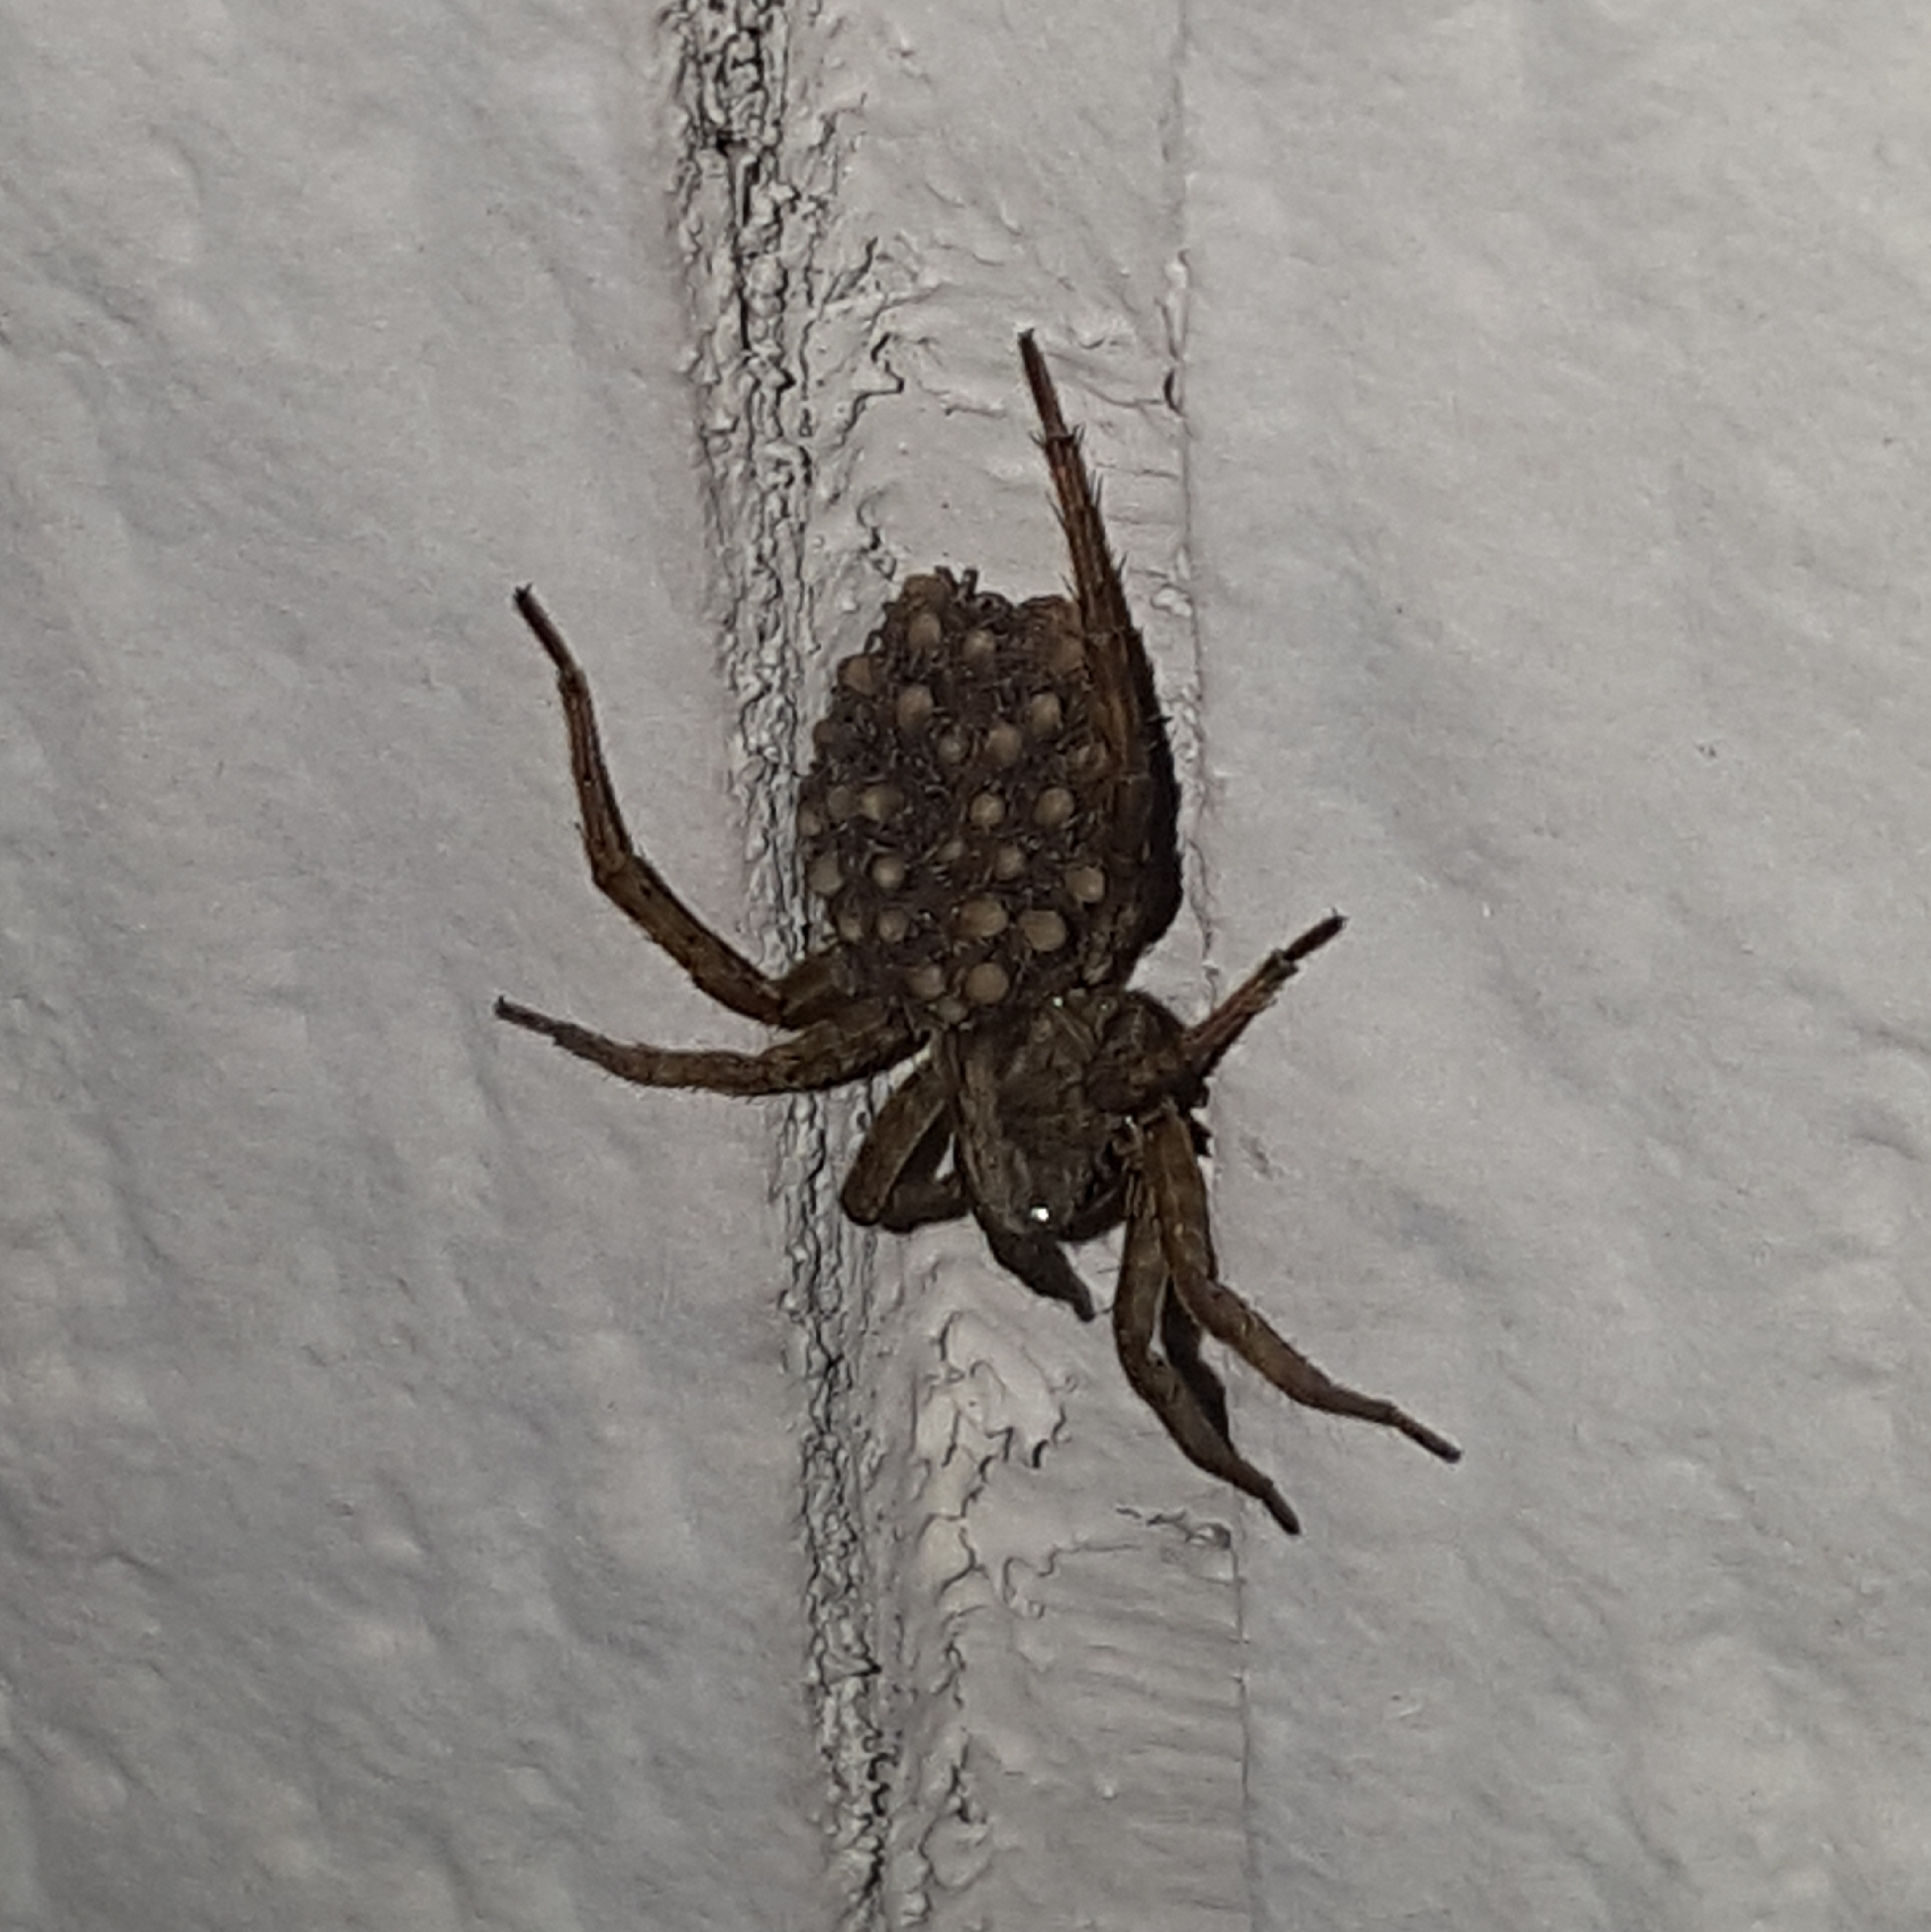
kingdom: Animalia
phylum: Arthropoda
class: Arachnida
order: Araneae
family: Lycosidae
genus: Trochosa
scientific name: Trochosa ruricola
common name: Spider
